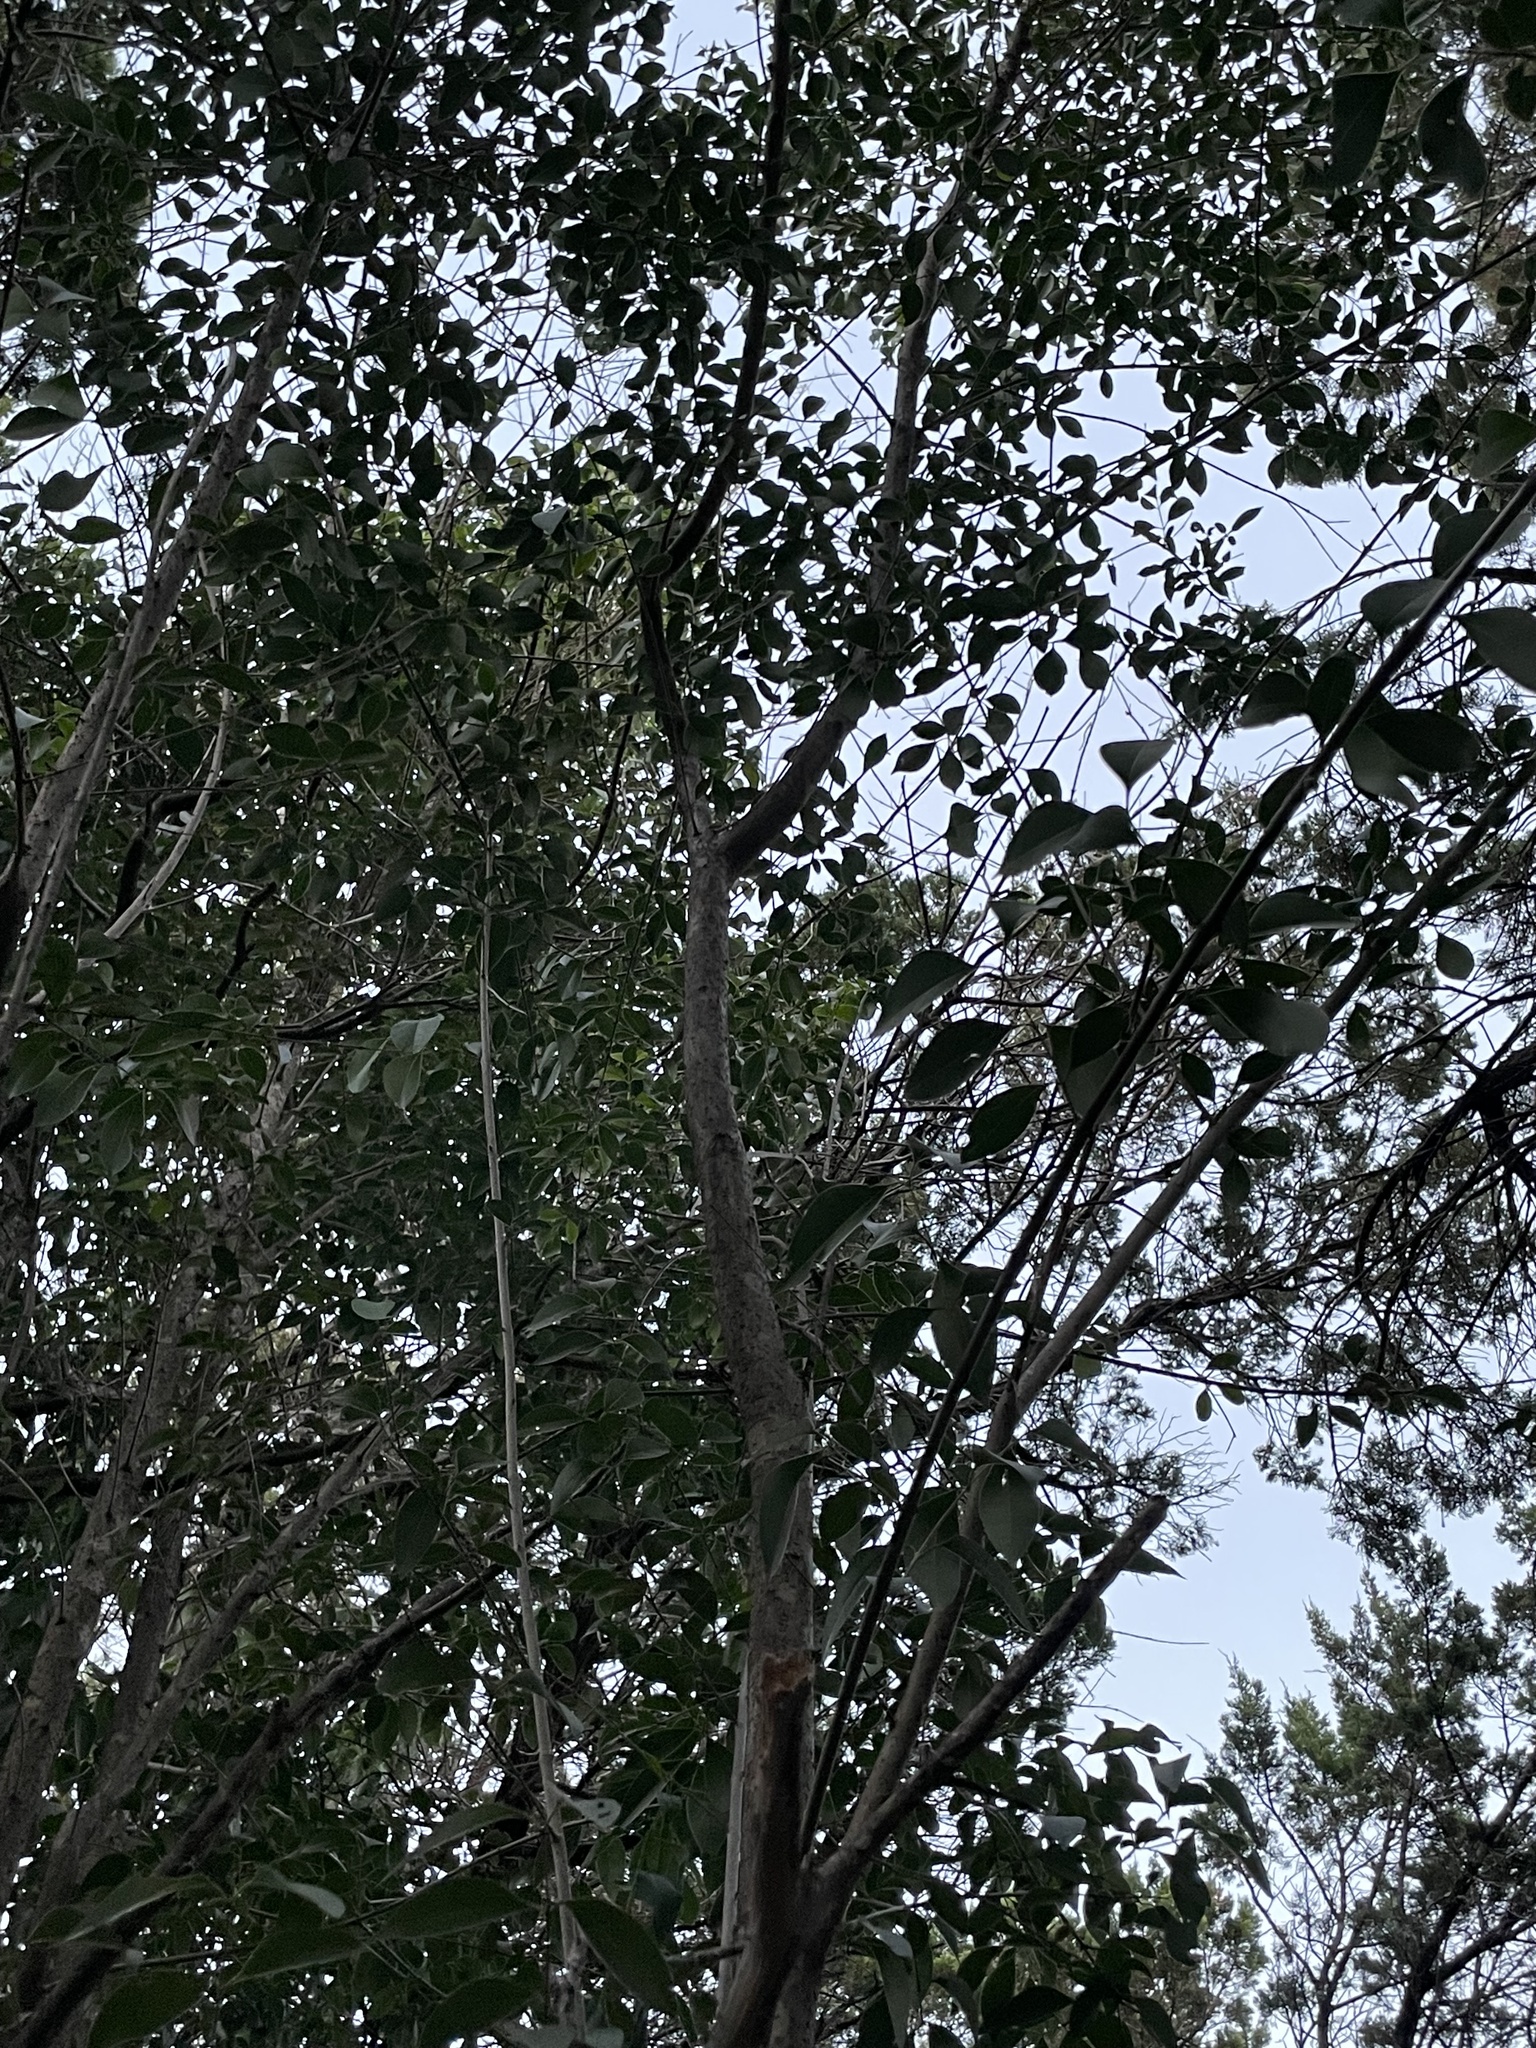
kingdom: Plantae
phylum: Tracheophyta
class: Magnoliopsida
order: Lamiales
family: Oleaceae
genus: Ligustrum
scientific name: Ligustrum lucidum
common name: Glossy privet
